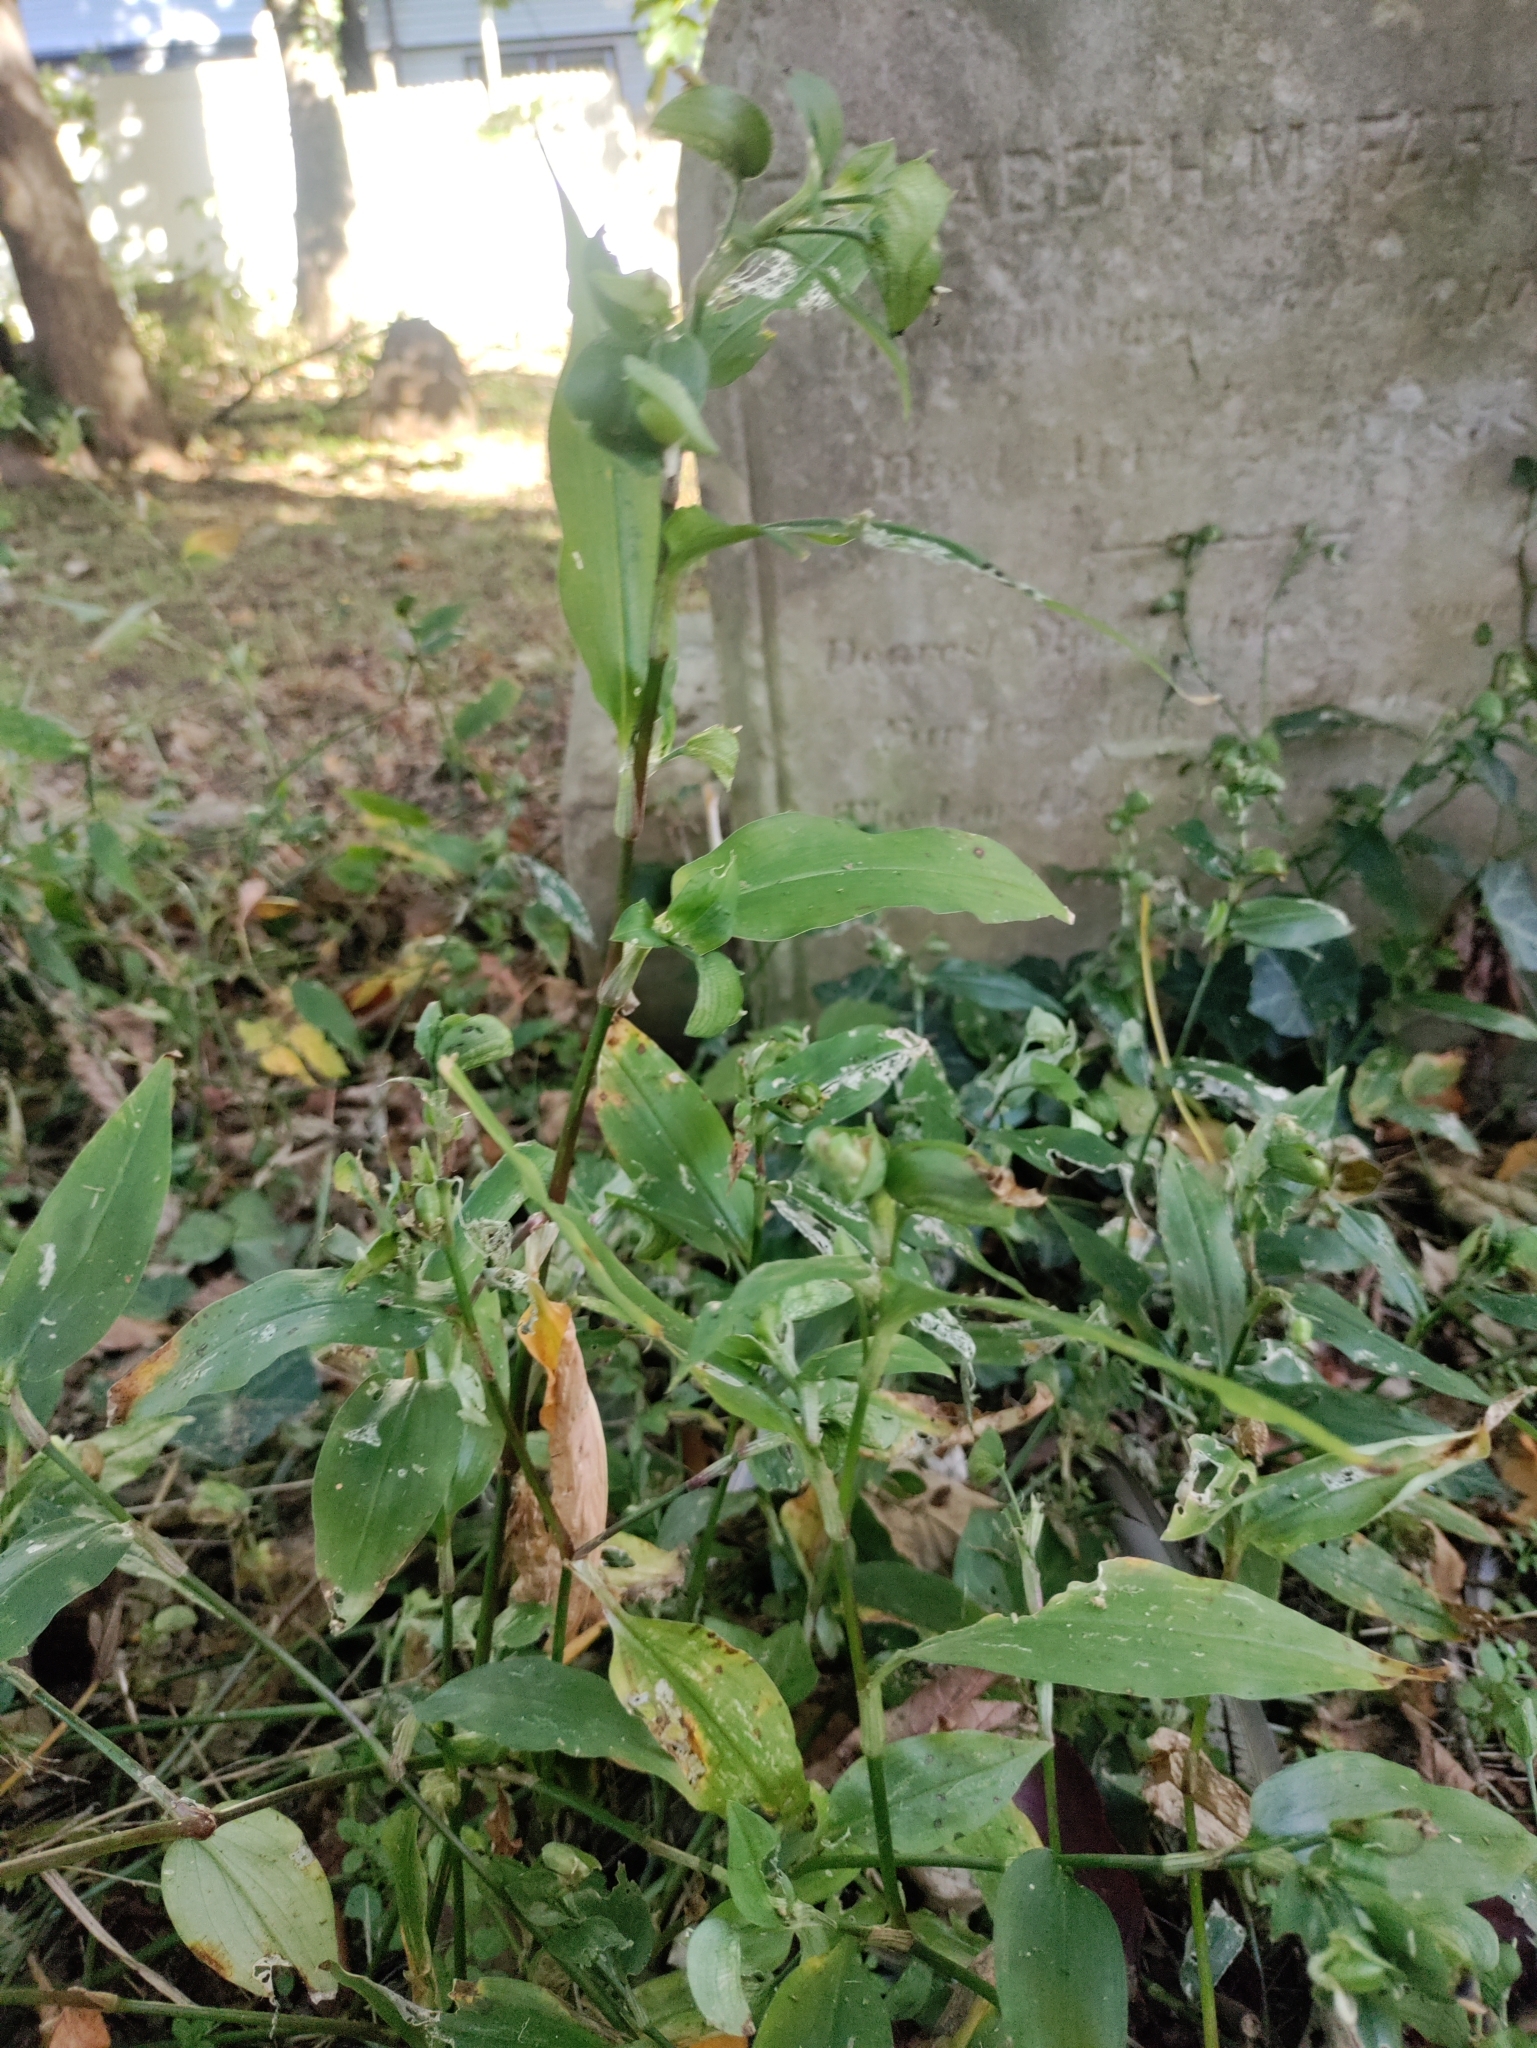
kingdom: Plantae
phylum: Tracheophyta
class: Liliopsida
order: Commelinales
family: Commelinaceae
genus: Commelina
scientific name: Commelina communis
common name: Asiatic dayflower
